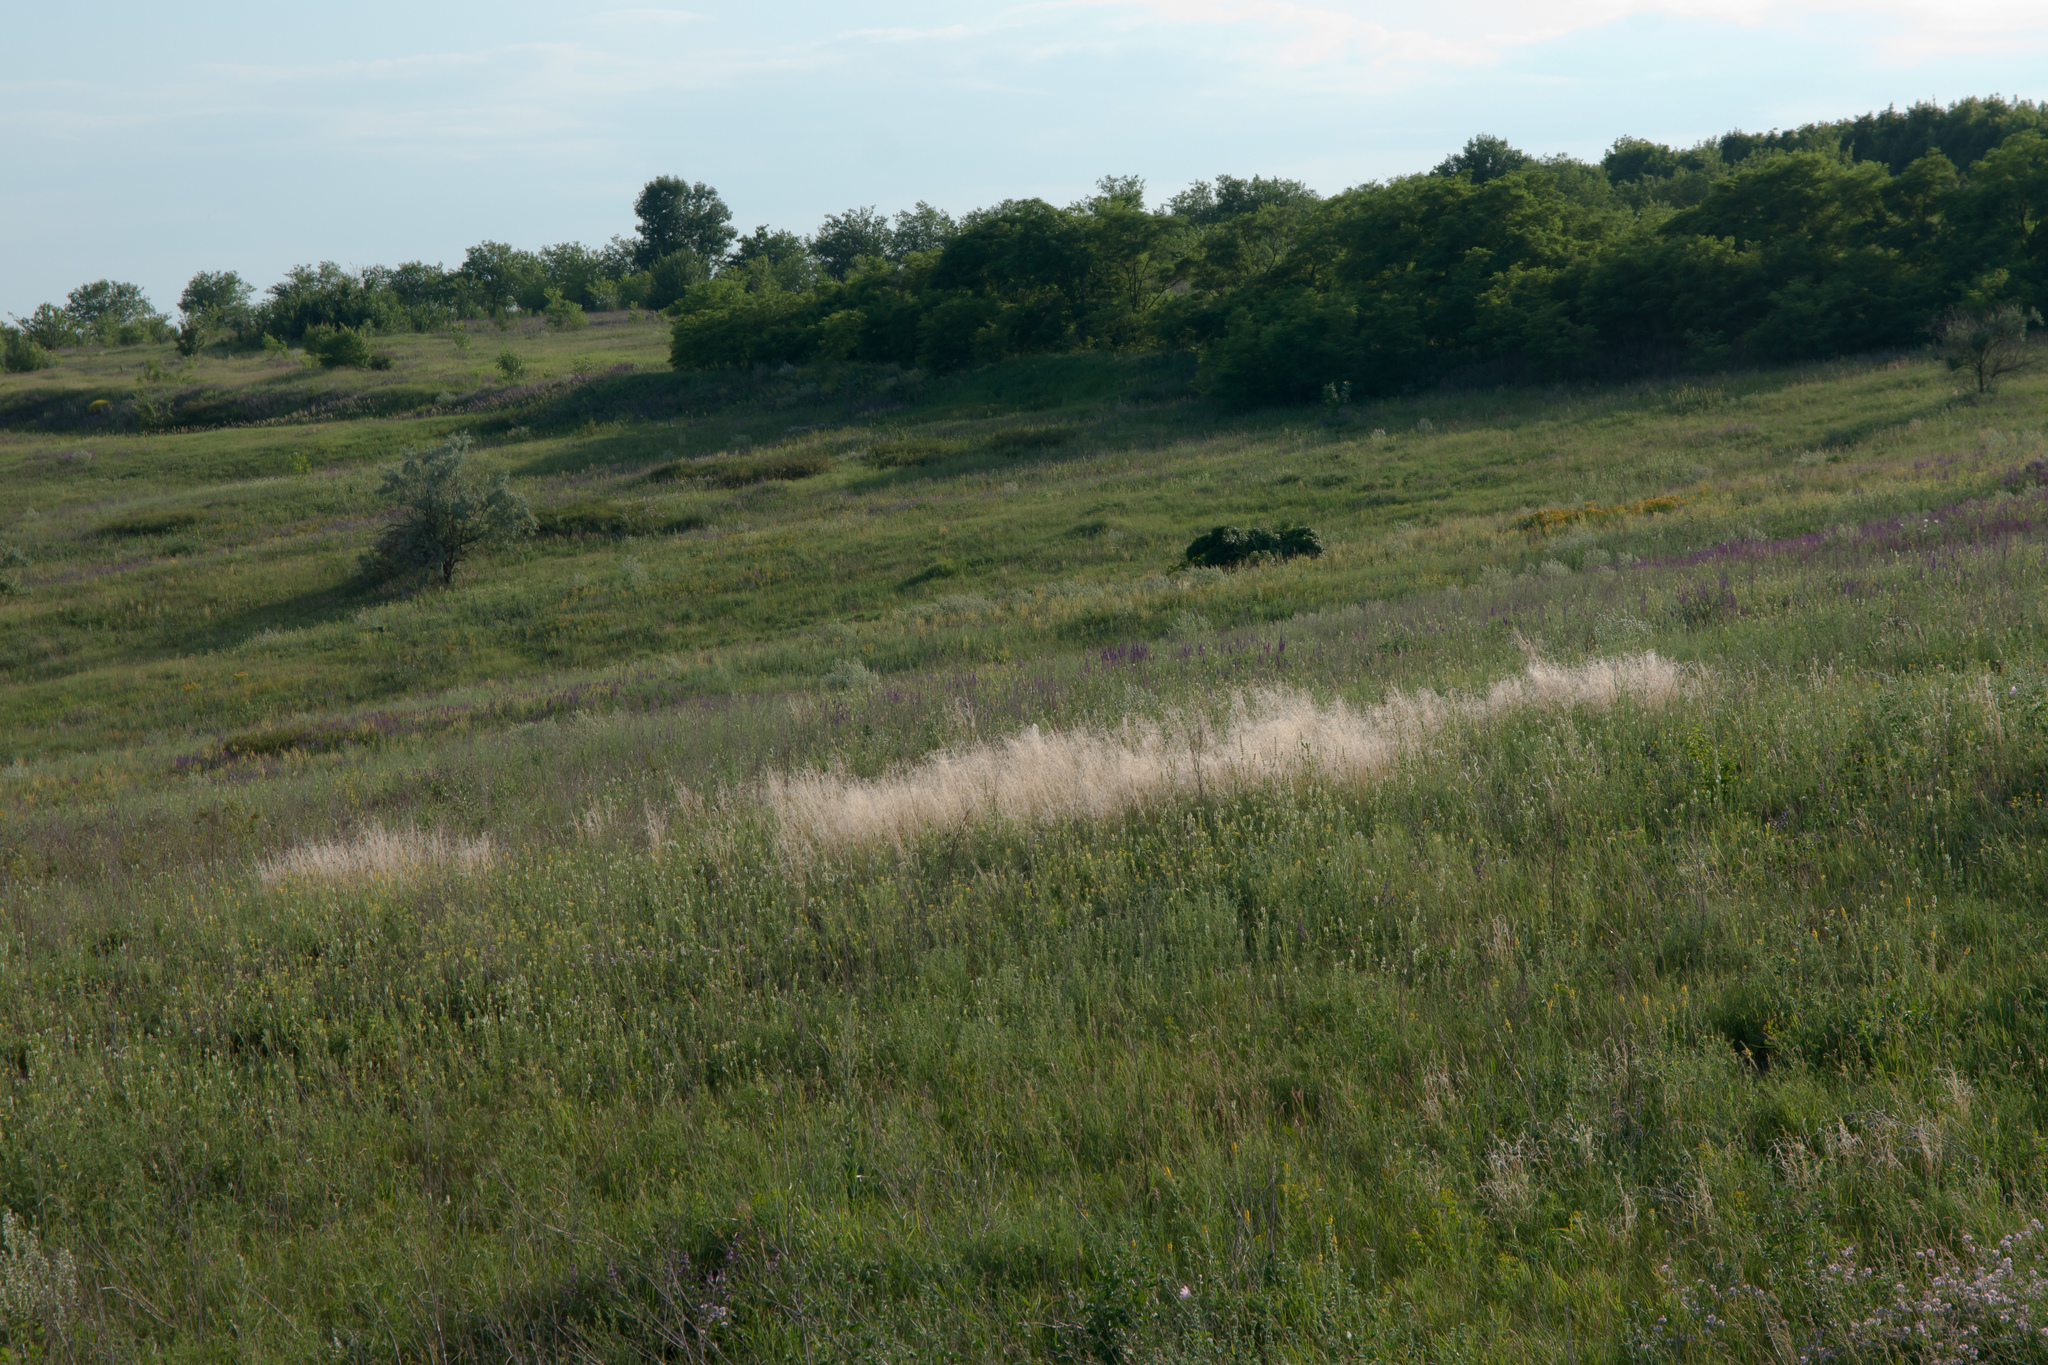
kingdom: Plantae
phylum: Tracheophyta
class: Liliopsida
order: Poales
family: Poaceae
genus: Stipa
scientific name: Stipa lessingiana
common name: Needle grass
